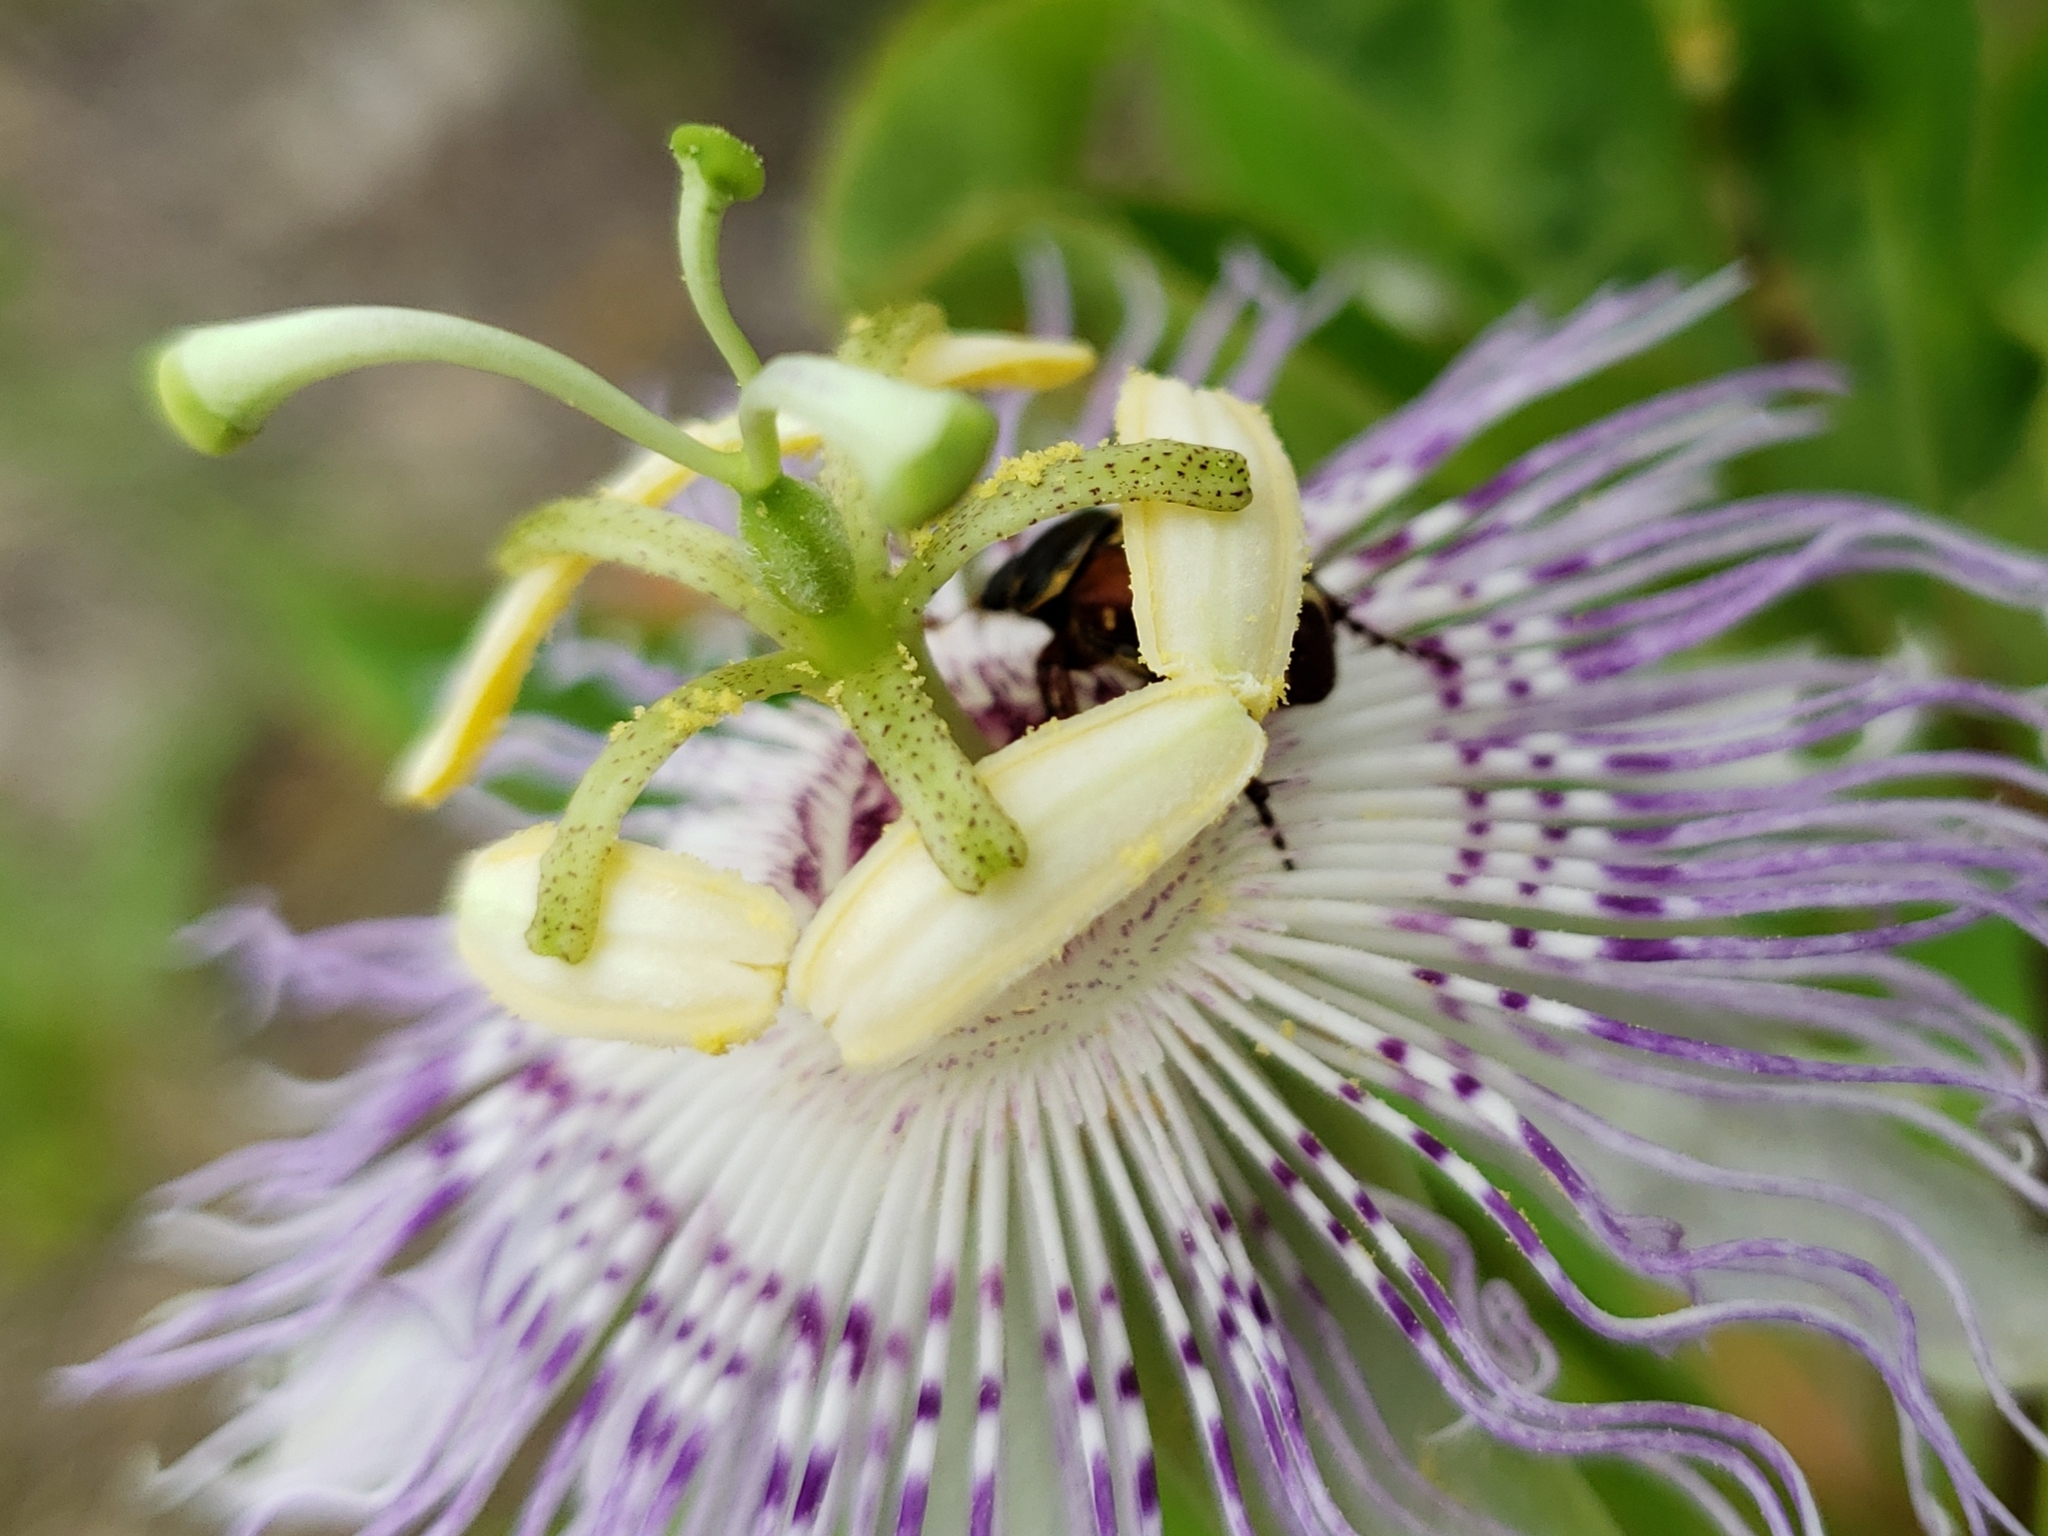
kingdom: Plantae
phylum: Tracheophyta
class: Magnoliopsida
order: Malpighiales
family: Passifloraceae
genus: Passiflora
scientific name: Passiflora incarnata
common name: Apricot-vine
